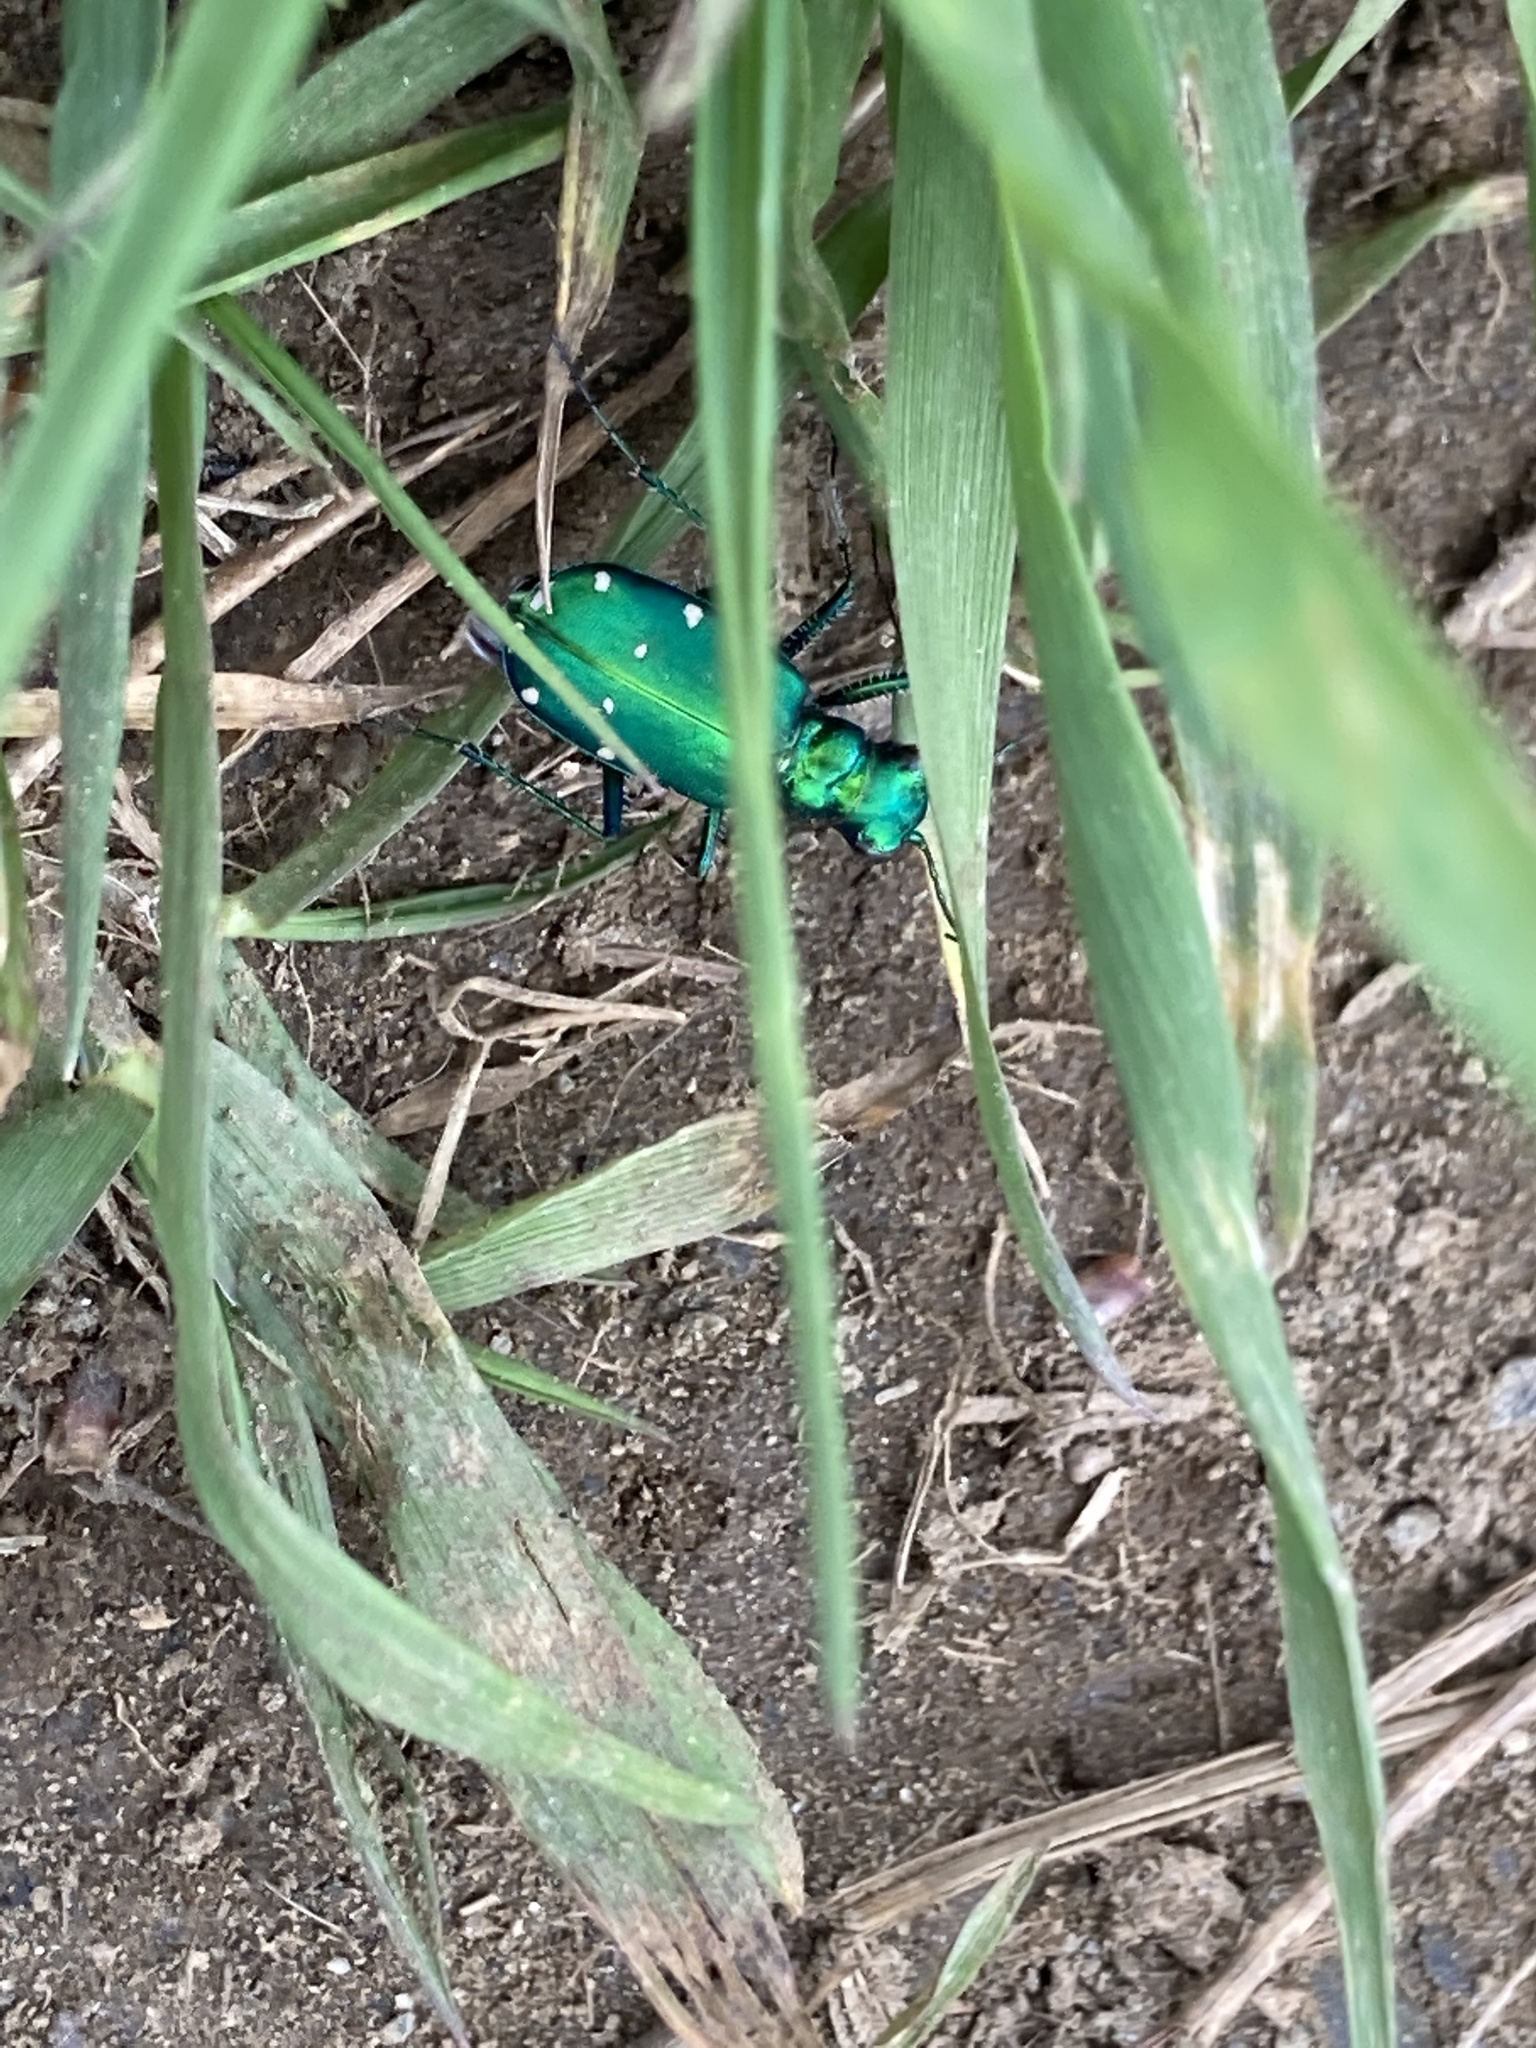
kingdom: Animalia
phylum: Arthropoda
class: Insecta
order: Coleoptera
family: Carabidae
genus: Cicindela
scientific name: Cicindela sexguttata
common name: Six-spotted tiger beetle
